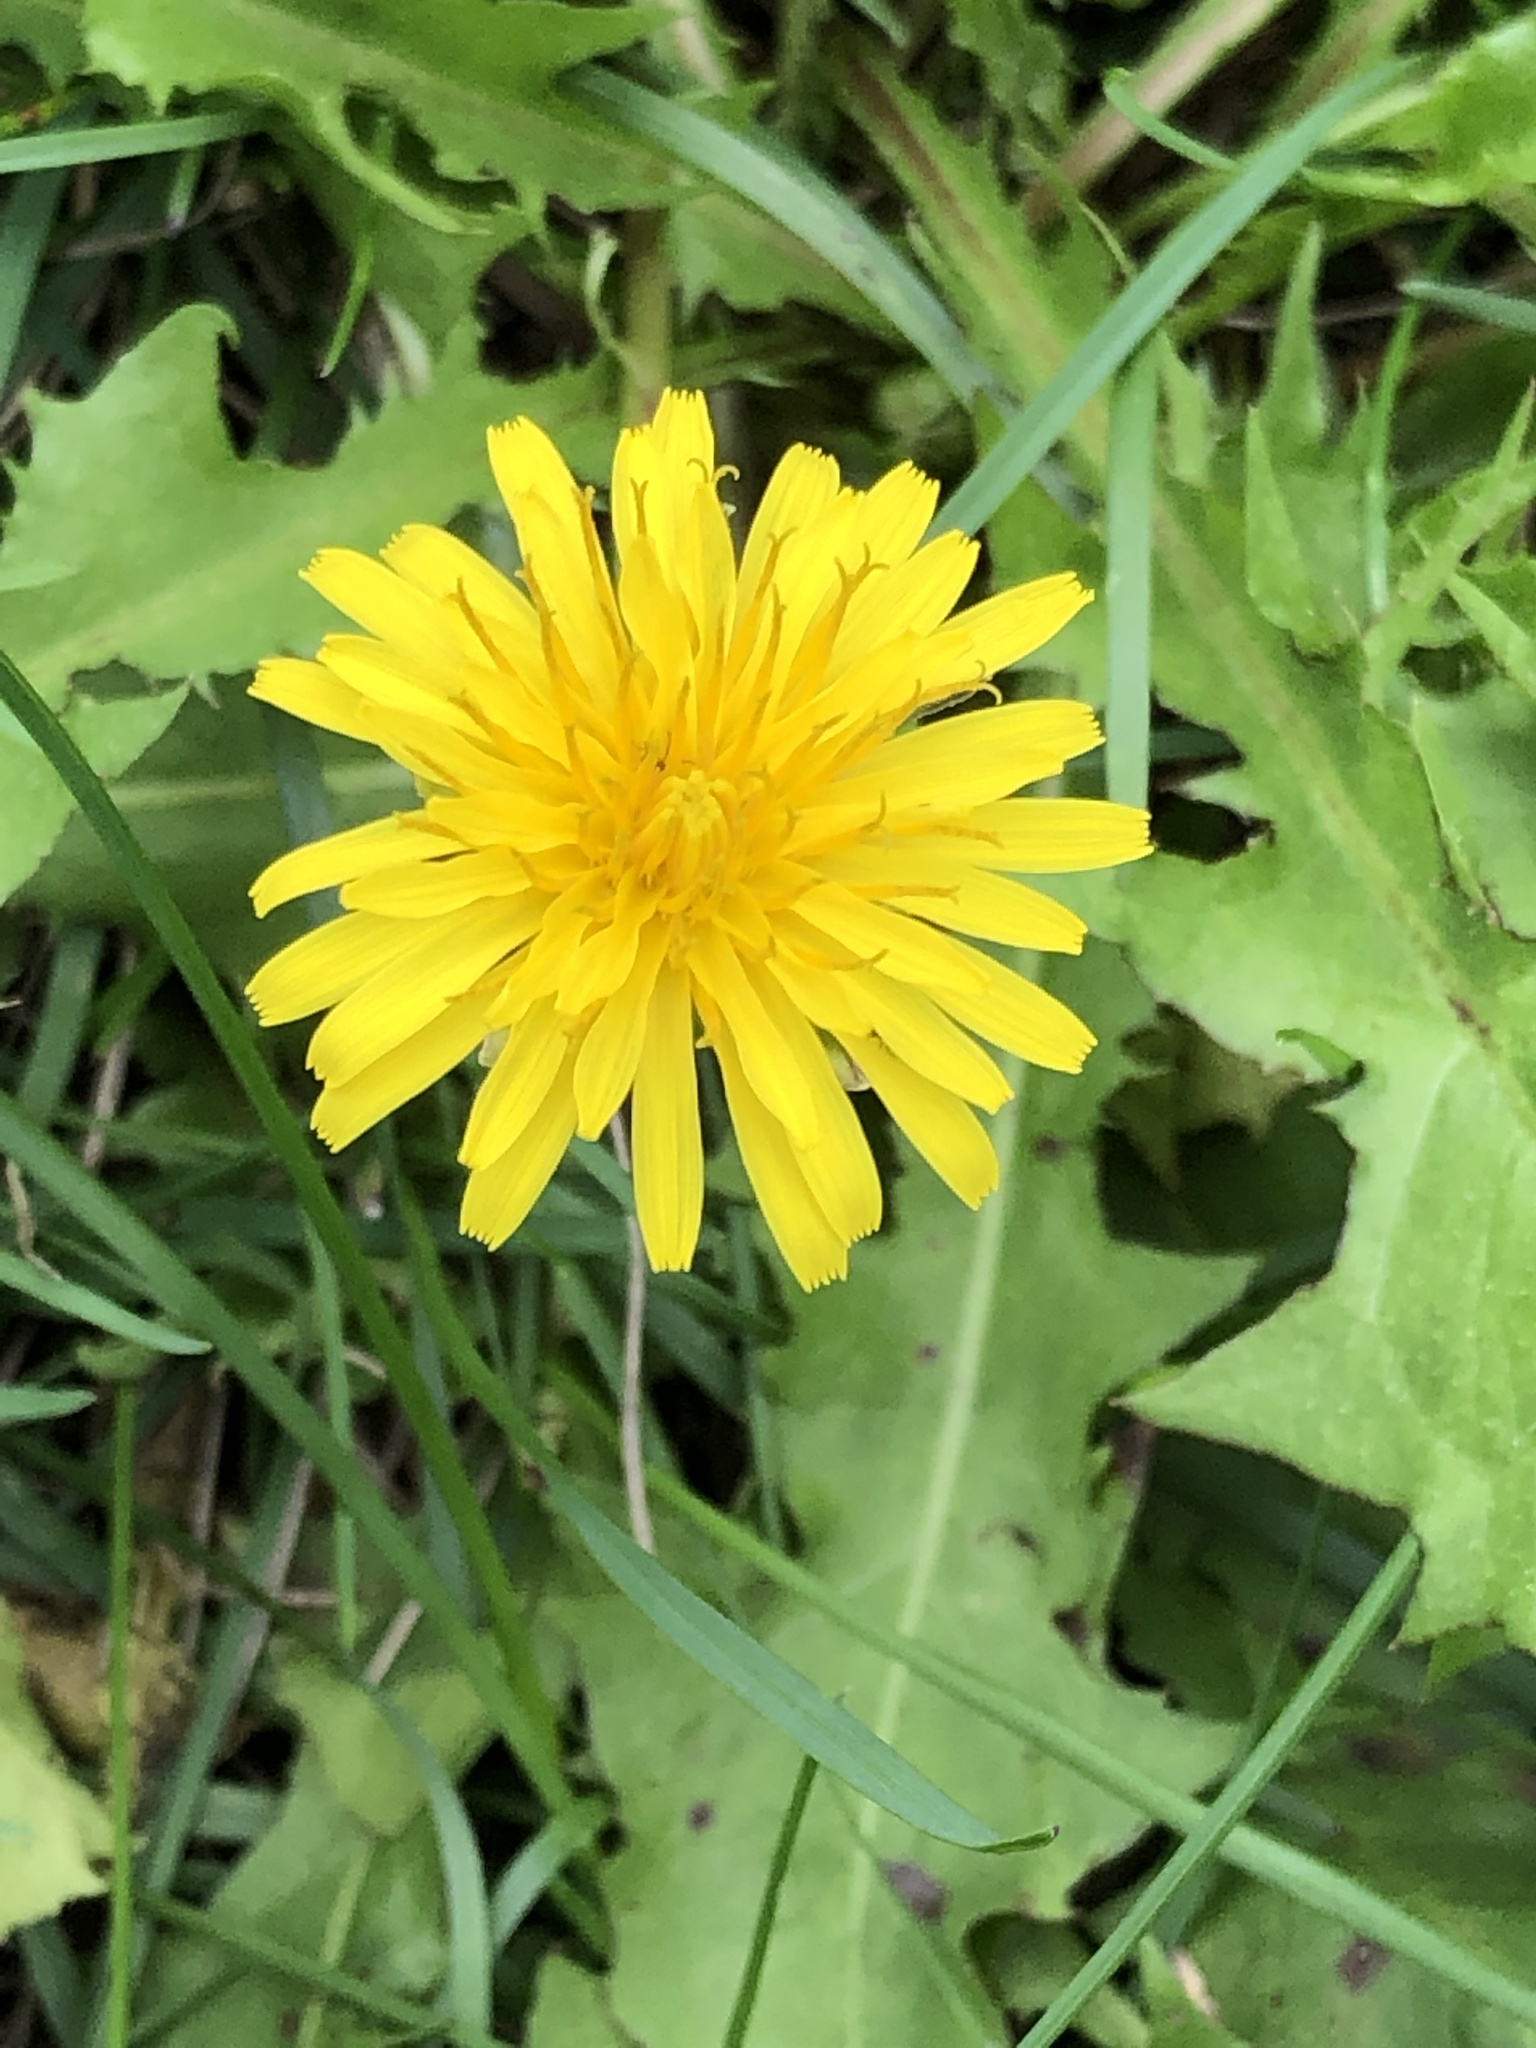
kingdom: Plantae
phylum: Tracheophyta
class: Magnoliopsida
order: Asterales
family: Asteraceae
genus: Taraxacum
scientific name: Taraxacum
